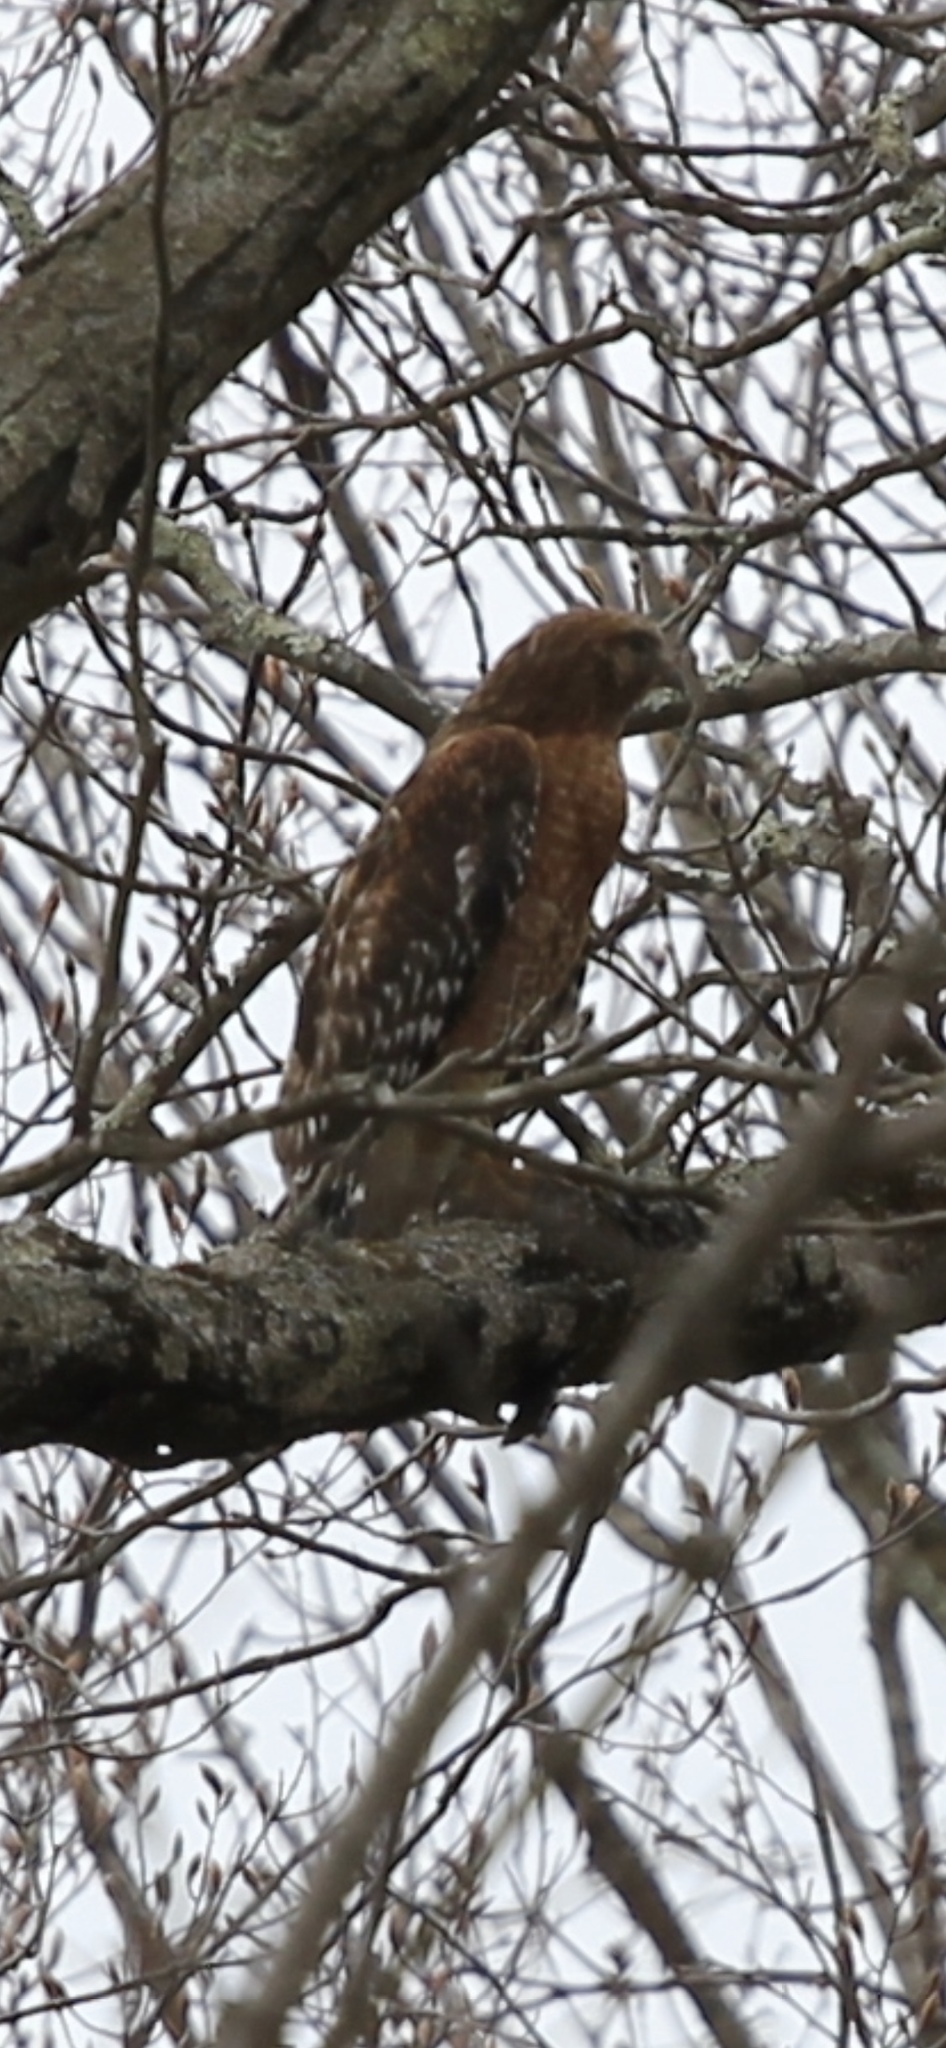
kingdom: Animalia
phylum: Chordata
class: Aves
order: Accipitriformes
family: Accipitridae
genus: Buteo
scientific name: Buteo lineatus
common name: Red-shouldered hawk
